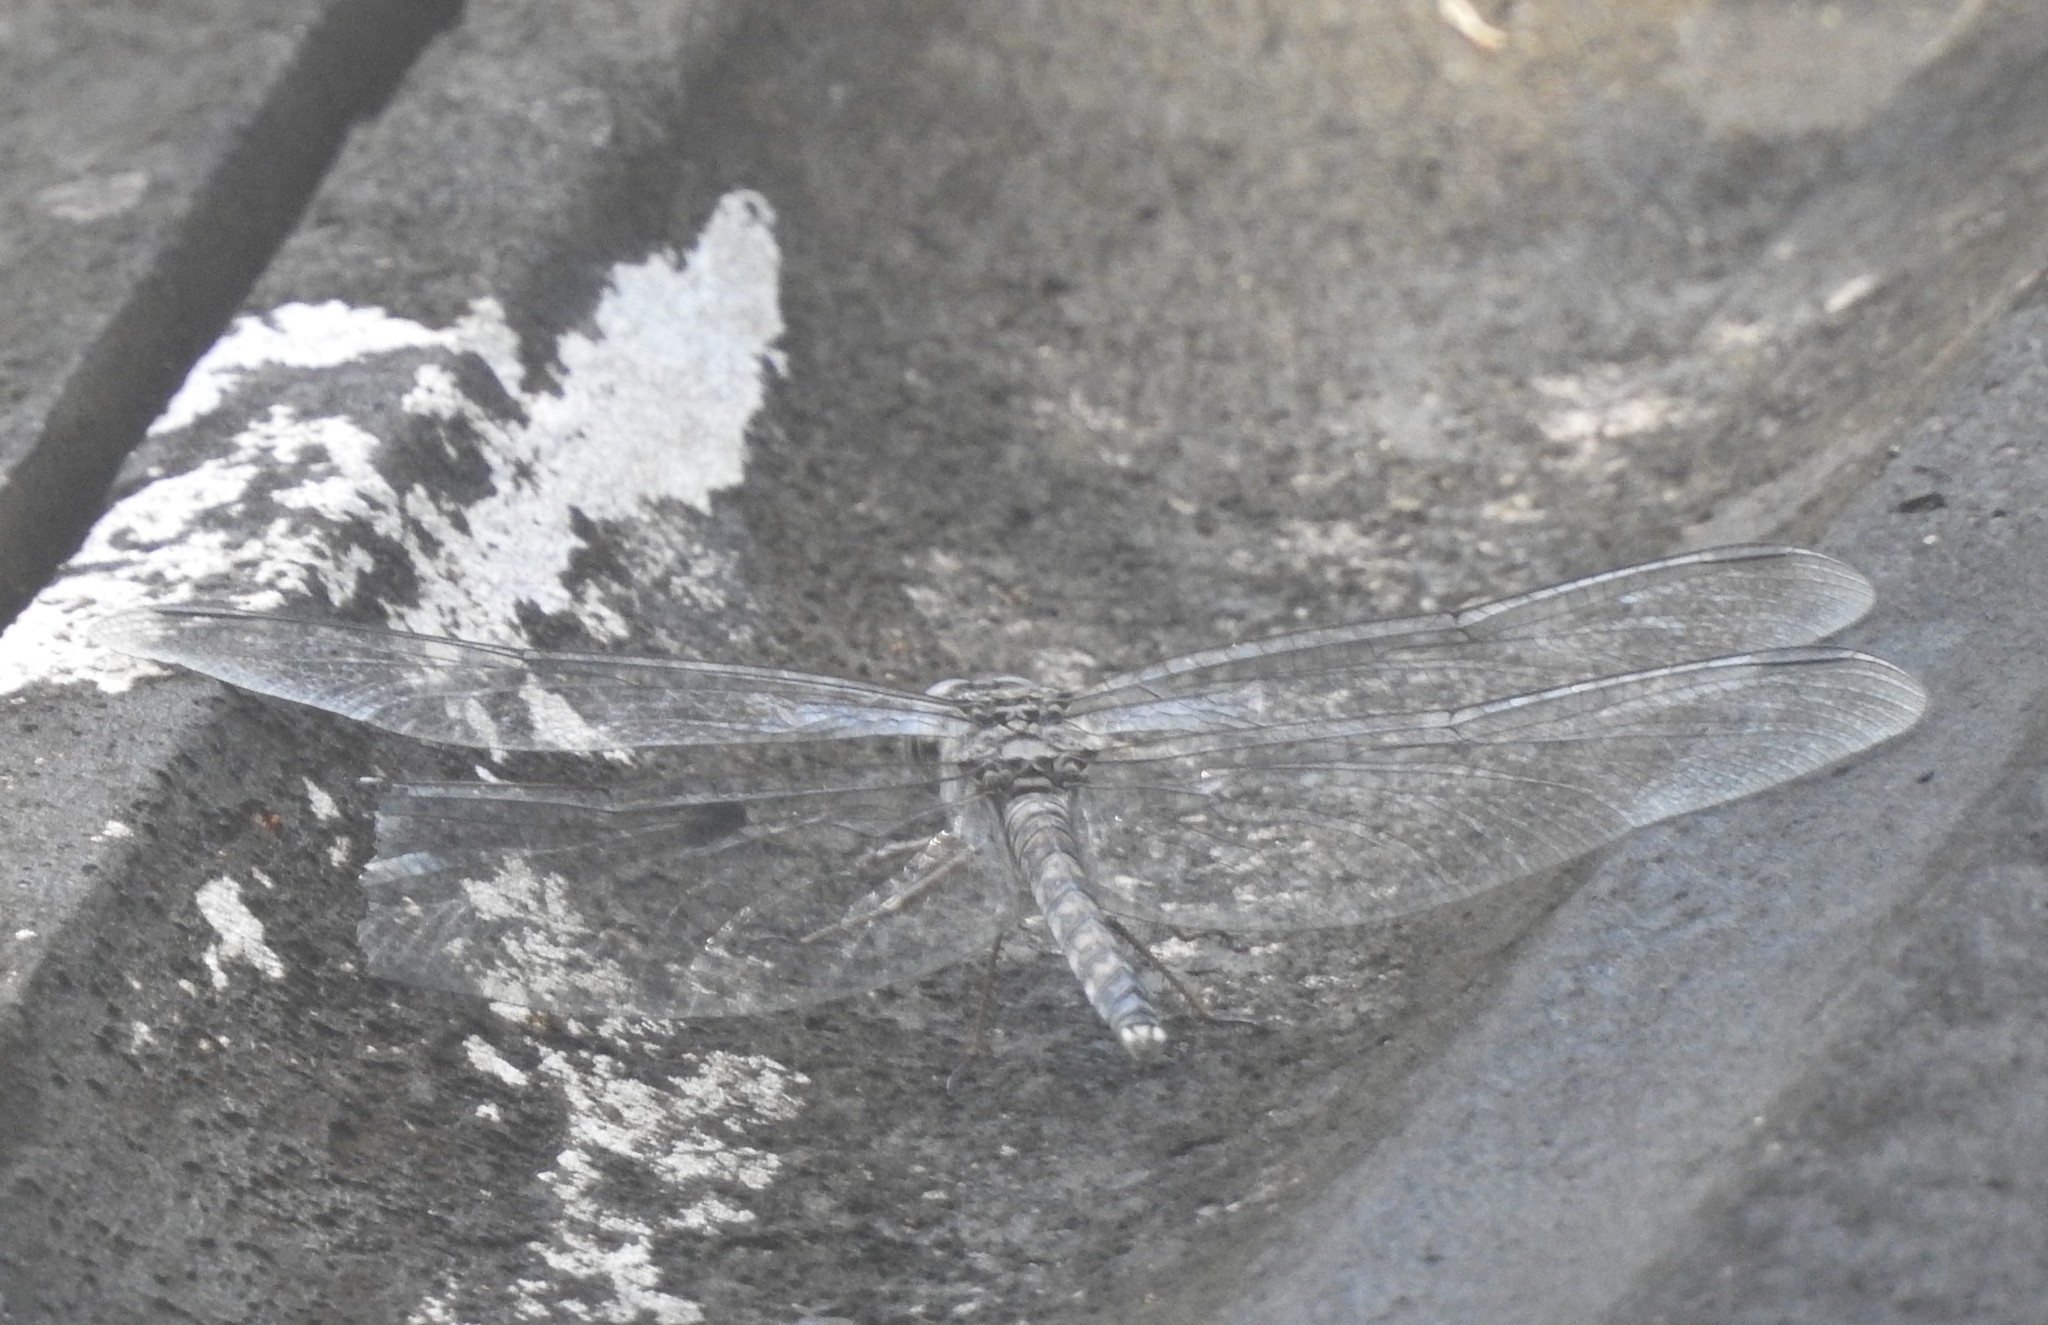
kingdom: Animalia
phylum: Arthropoda
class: Insecta
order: Odonata
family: Libellulidae
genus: Bradinopyga
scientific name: Bradinopyga geminata
